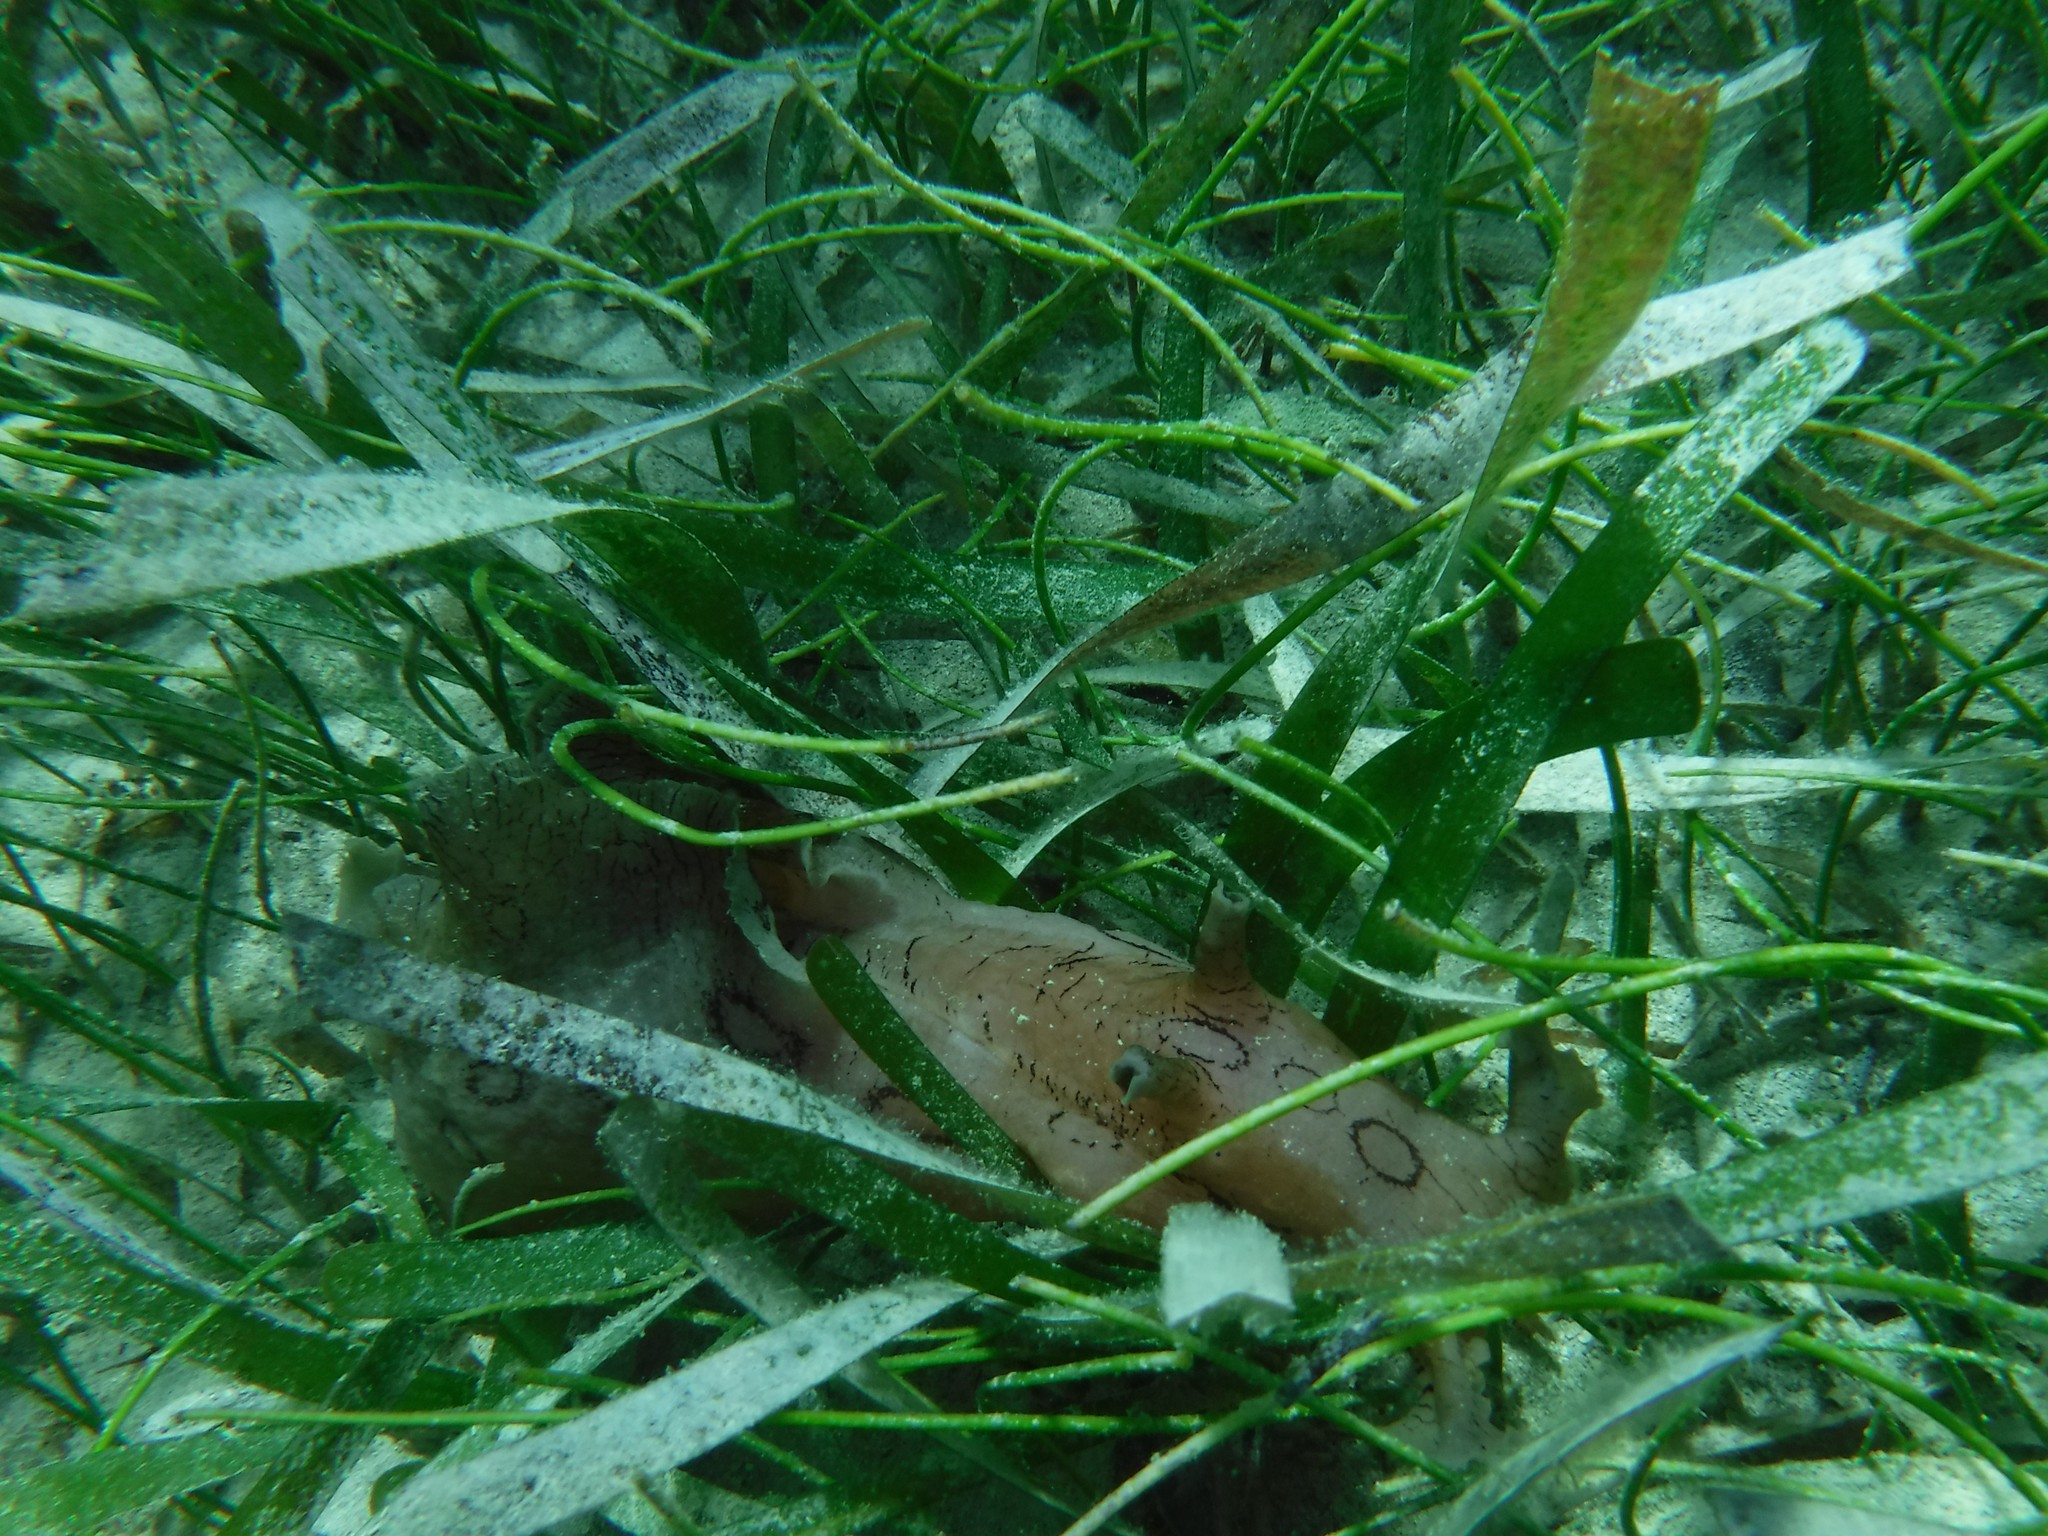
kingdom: Animalia
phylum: Mollusca
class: Gastropoda
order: Aplysiida
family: Aplysiidae
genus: Aplysia
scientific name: Aplysia dactylomela
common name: Large-spotted sea hare
